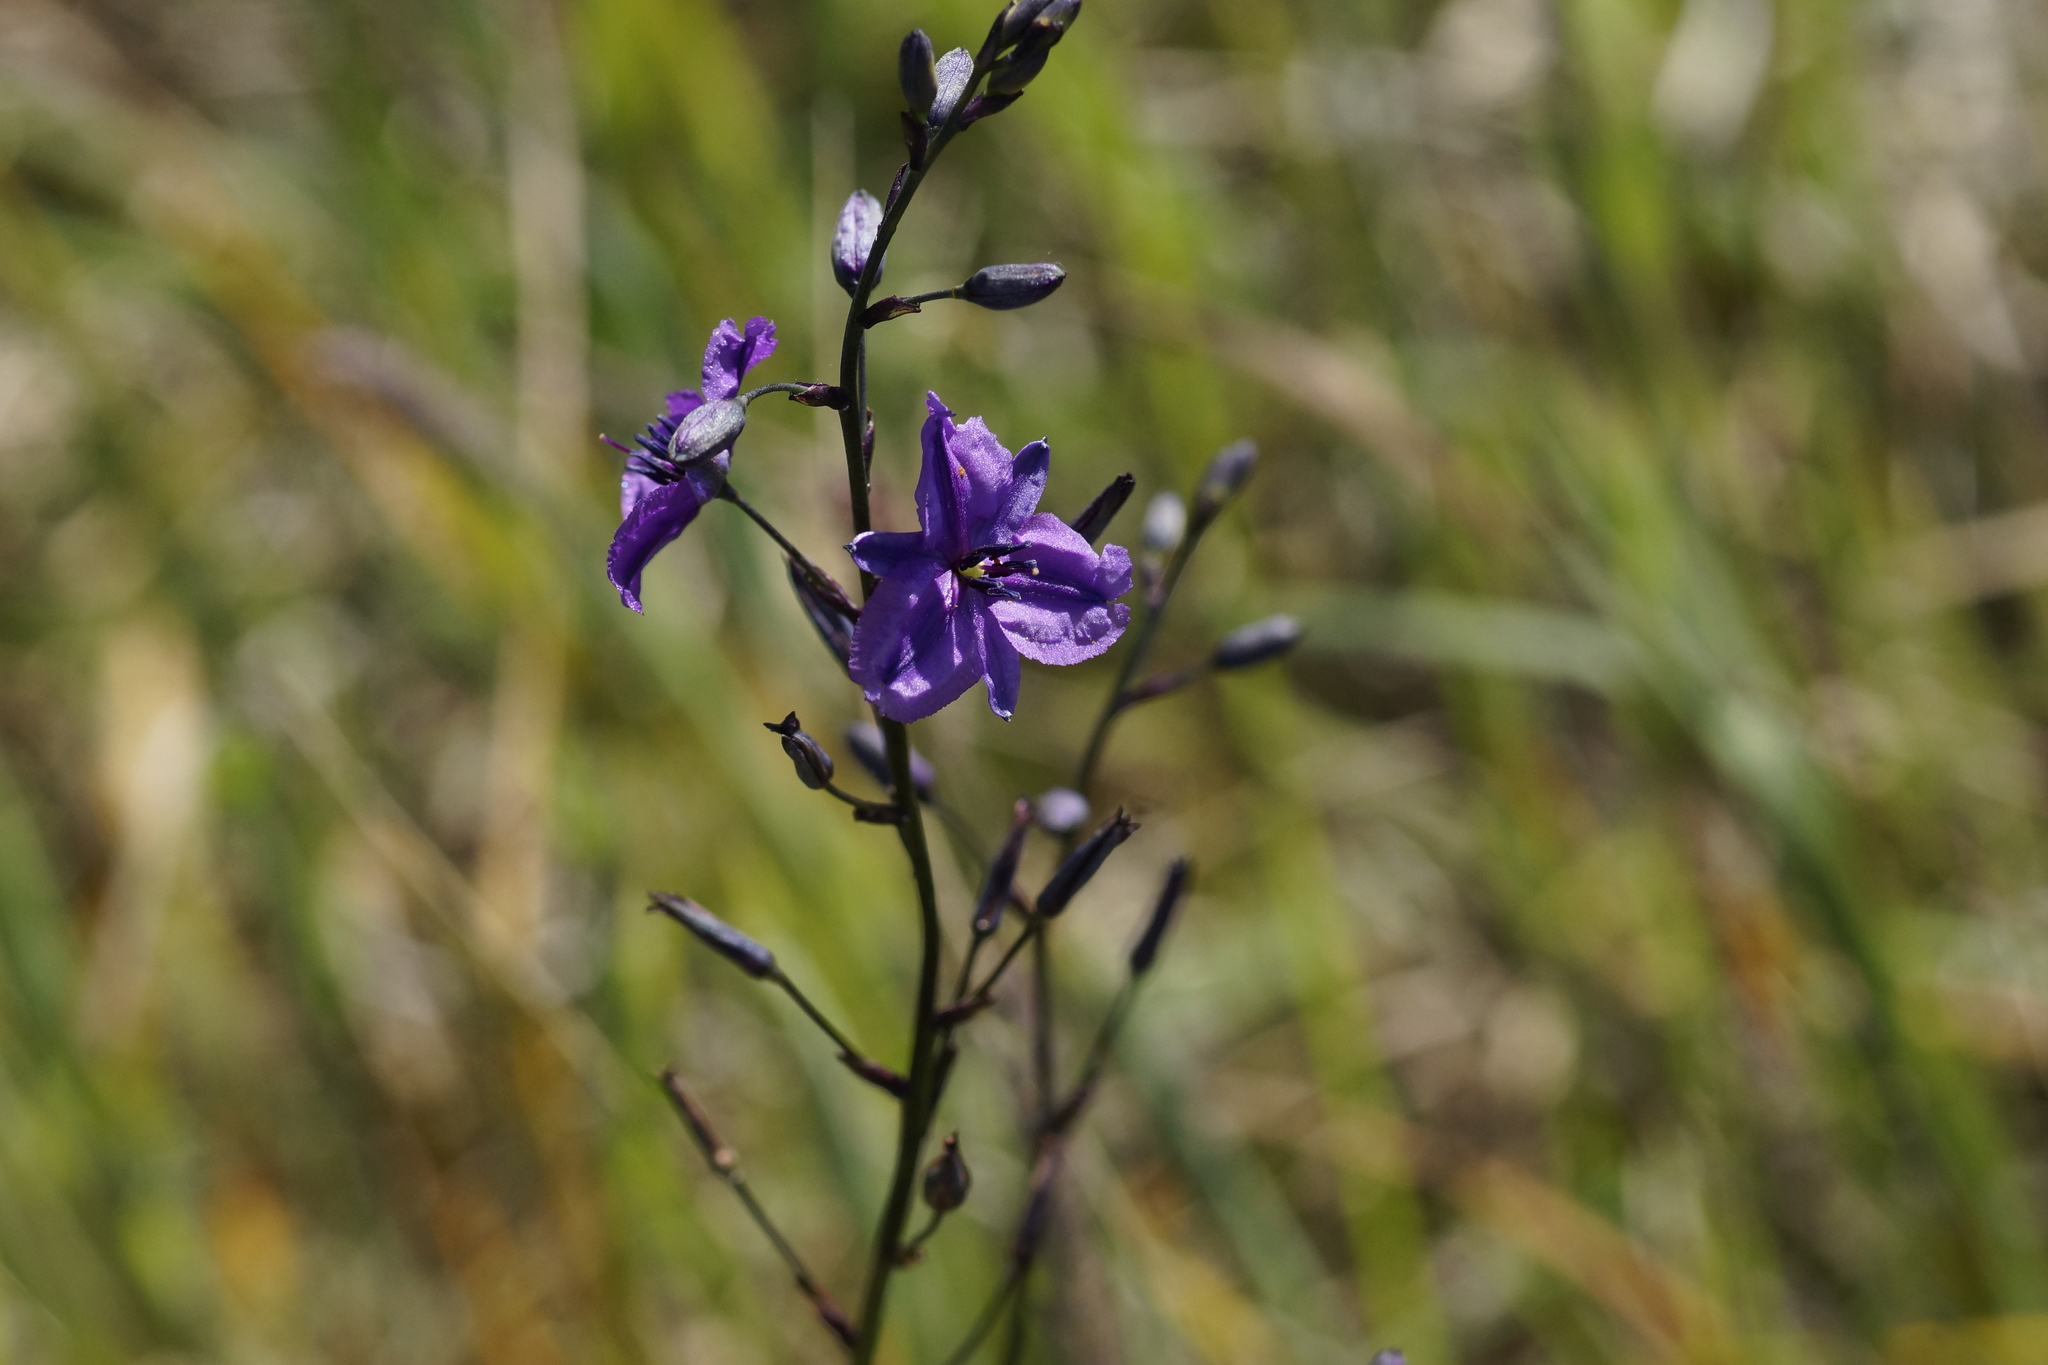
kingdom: Plantae
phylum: Tracheophyta
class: Liliopsida
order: Asparagales
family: Asparagaceae
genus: Arthropodium
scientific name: Arthropodium strictum
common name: Chocolate-lily
